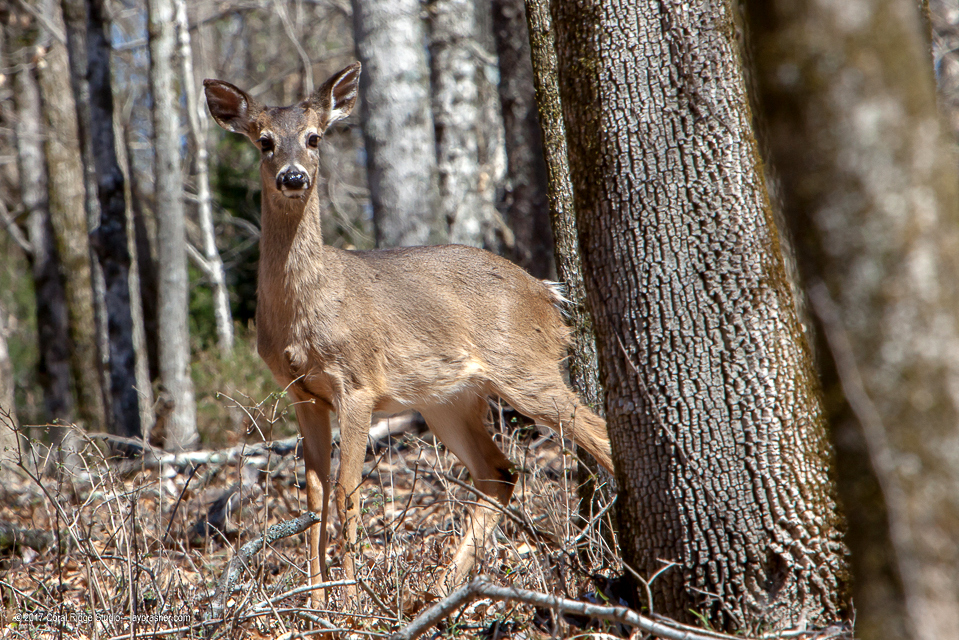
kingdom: Animalia
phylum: Chordata
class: Mammalia
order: Artiodactyla
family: Cervidae
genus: Odocoileus
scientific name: Odocoileus virginianus
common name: White-tailed deer
